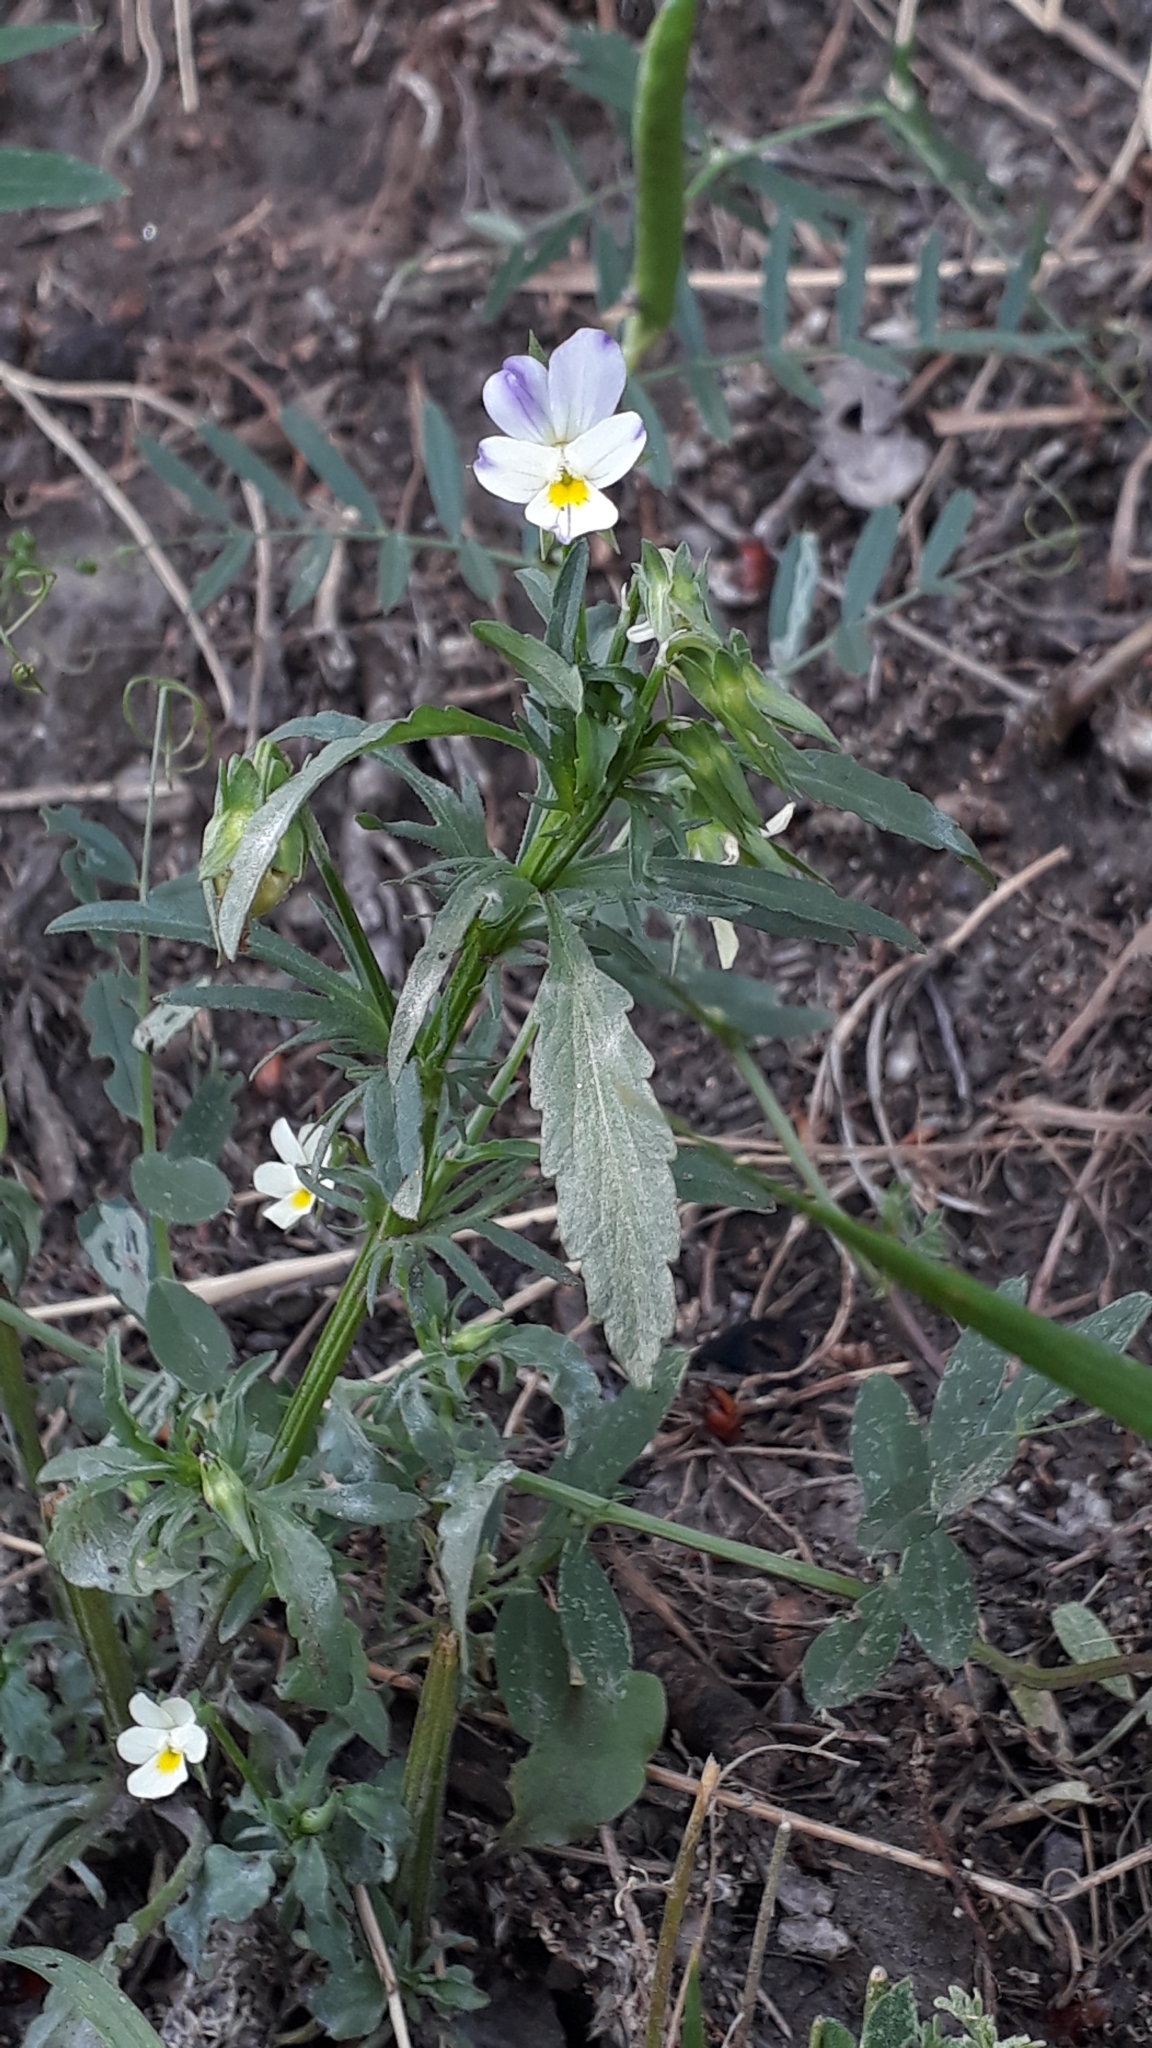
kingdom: Plantae
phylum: Tracheophyta
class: Magnoliopsida
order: Malpighiales
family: Violaceae
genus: Viola
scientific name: Viola arvensis
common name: Field pansy
